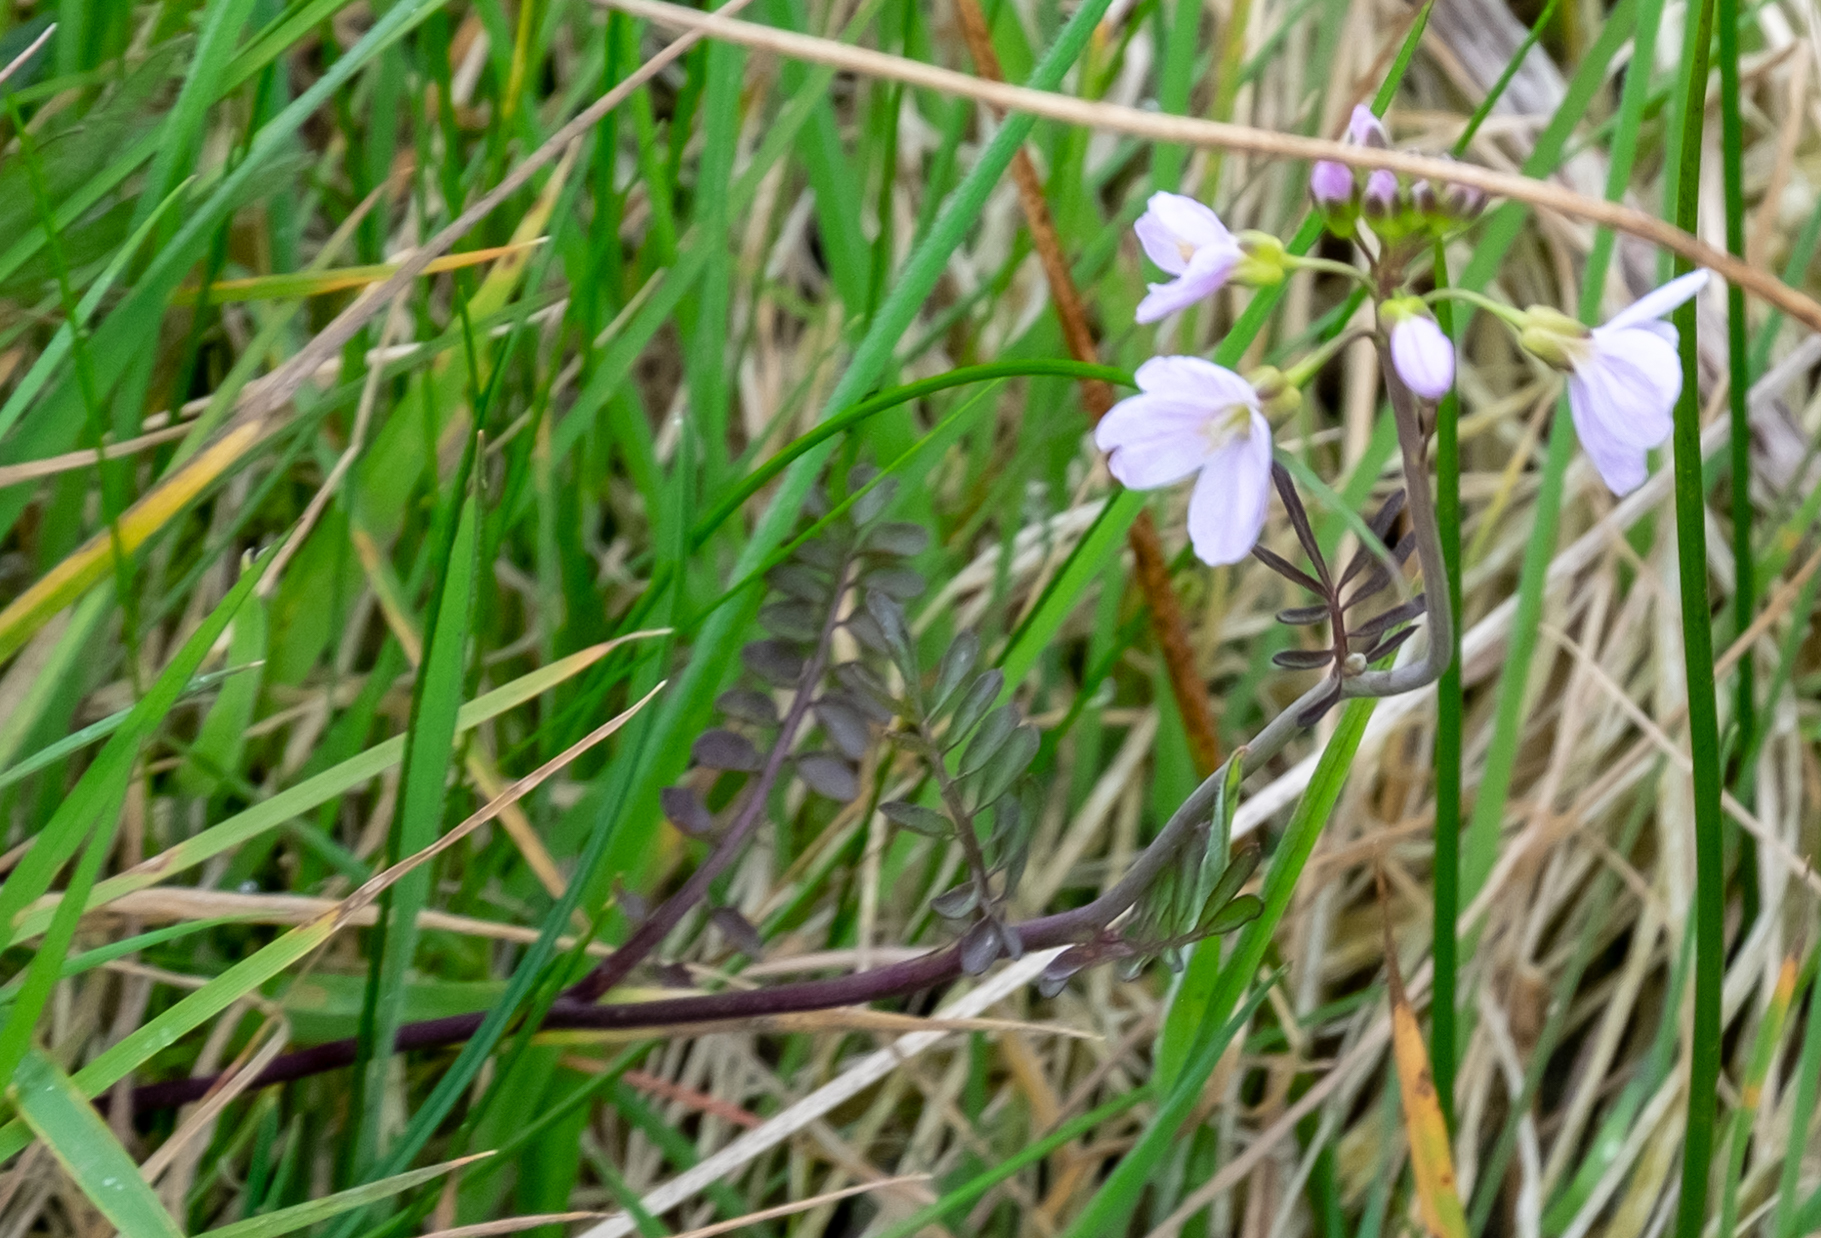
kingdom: Plantae
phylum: Tracheophyta
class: Magnoliopsida
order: Brassicales
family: Brassicaceae
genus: Cardamine
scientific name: Cardamine pratensis
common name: Cuckoo flower
